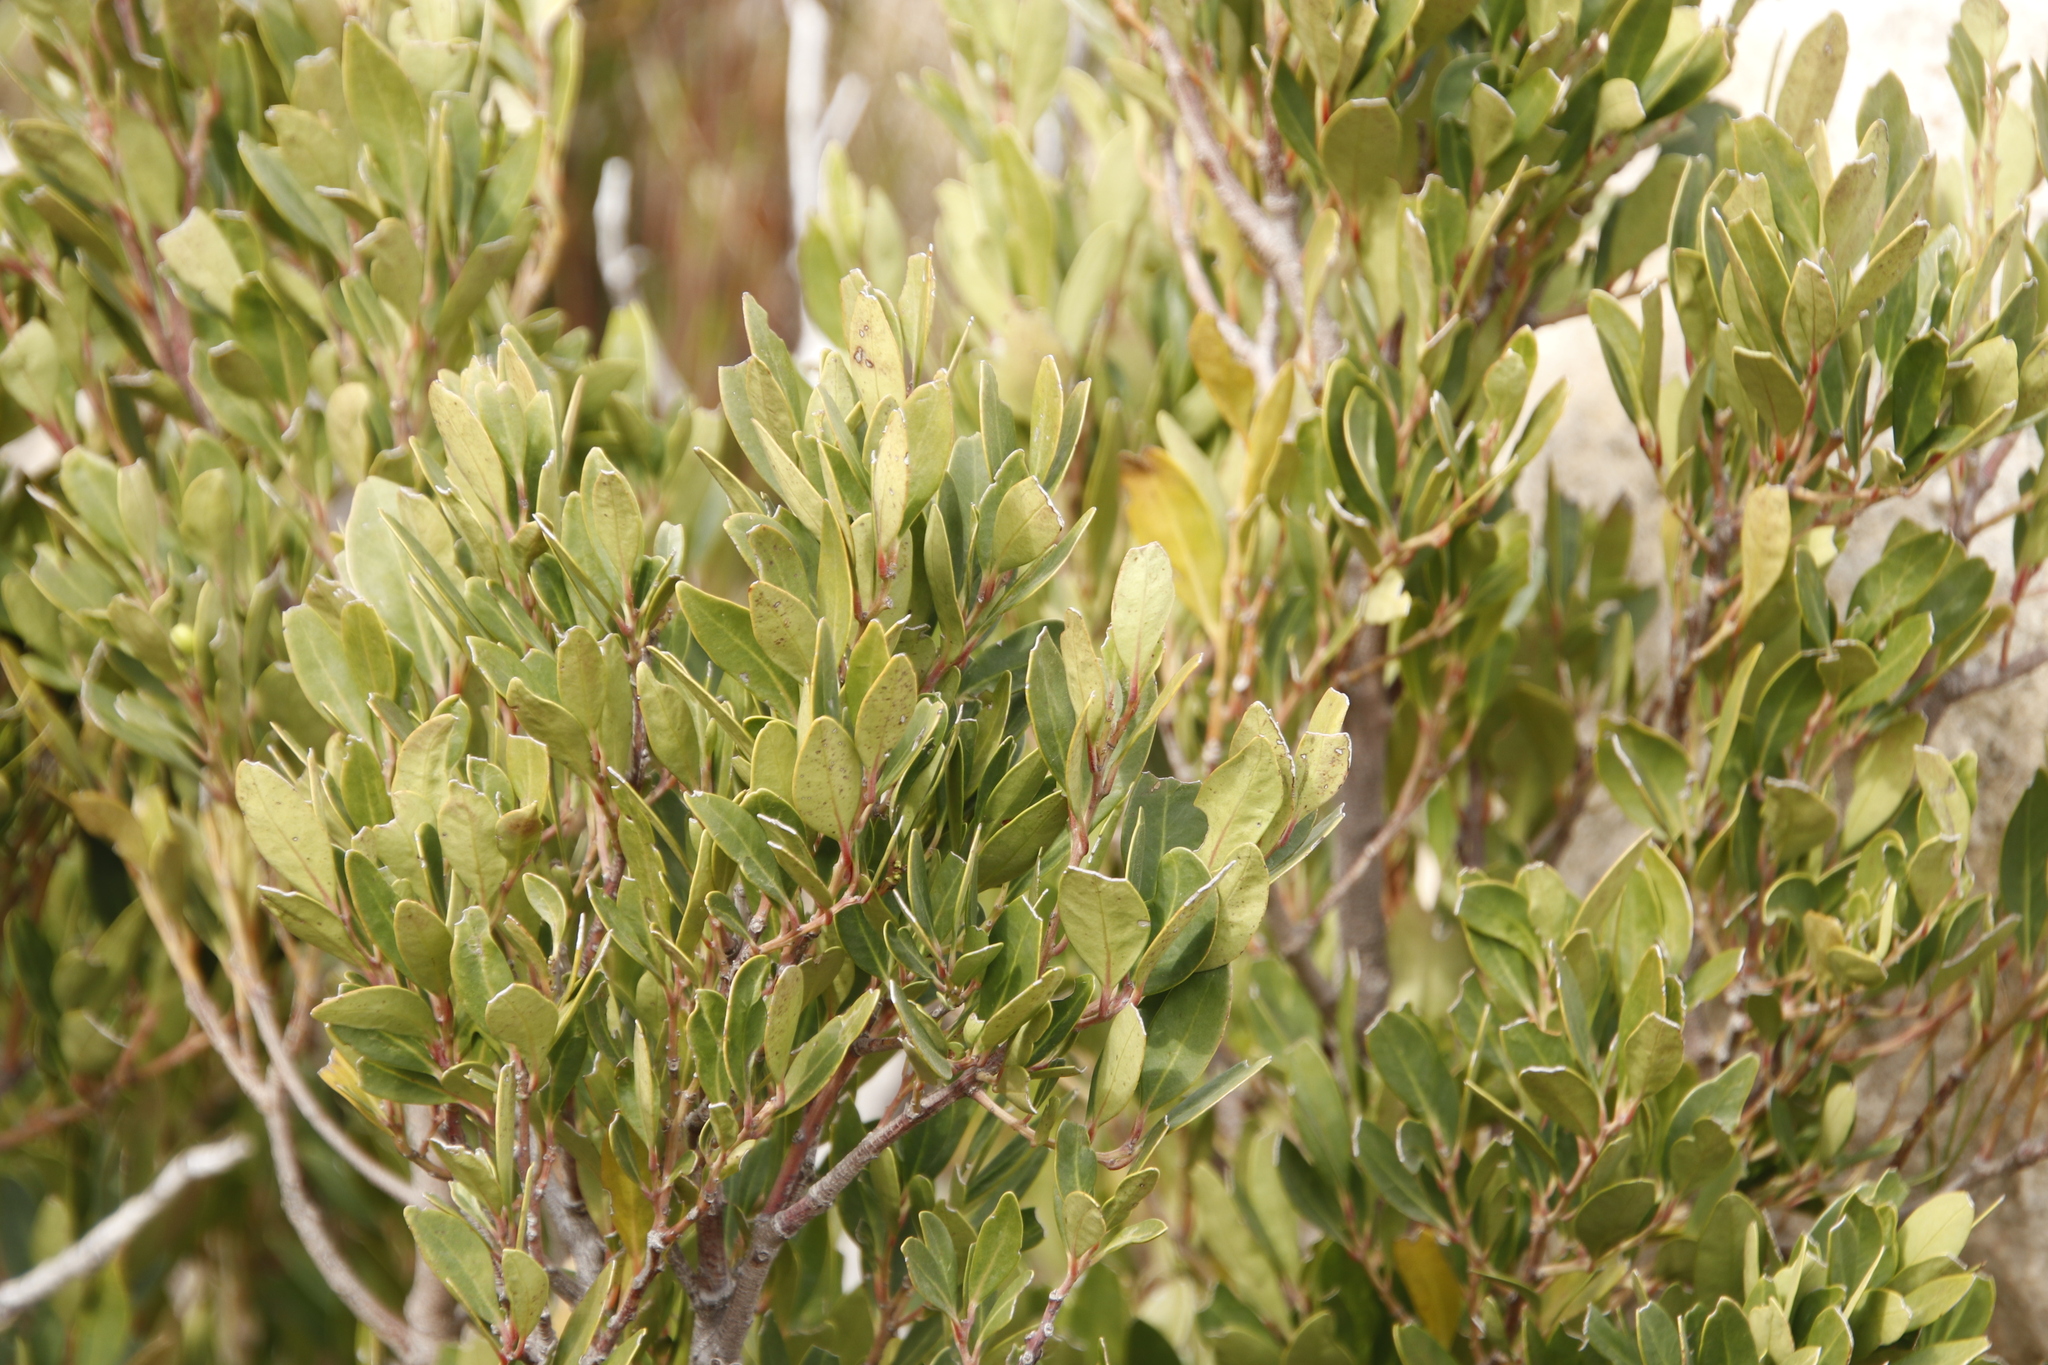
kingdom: Plantae
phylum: Tracheophyta
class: Magnoliopsida
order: Celastrales
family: Celastraceae
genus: Gymnosporia
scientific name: Gymnosporia laurina
